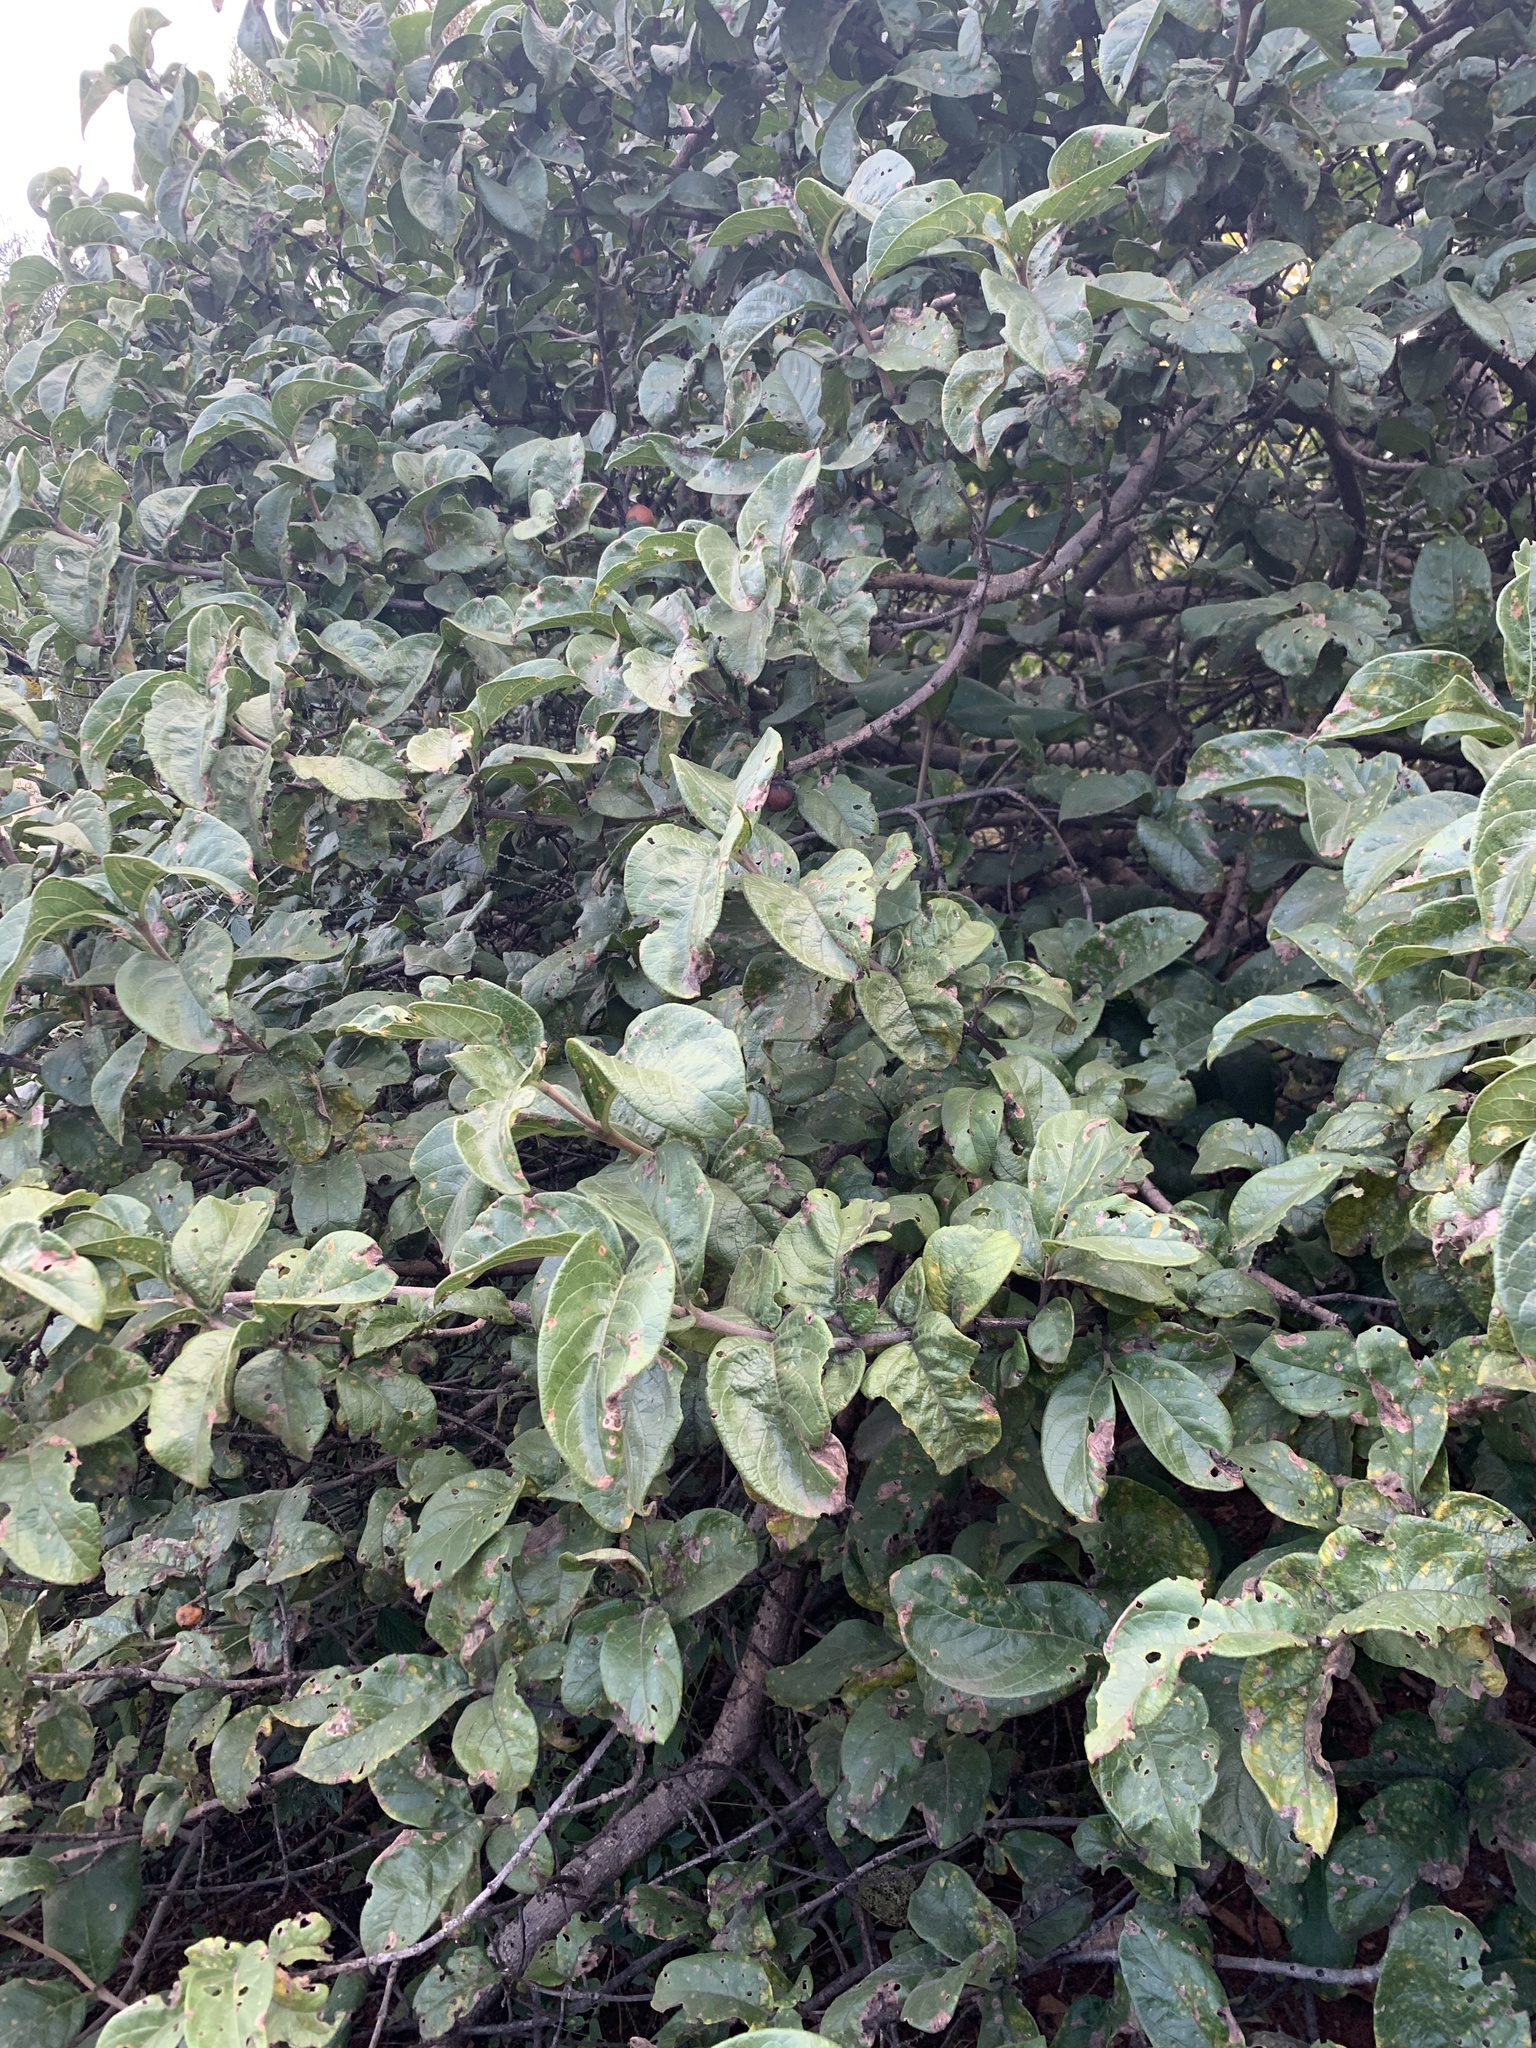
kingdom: Plantae
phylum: Tracheophyta
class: Magnoliopsida
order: Gentianales
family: Rubiaceae
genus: Vangueria
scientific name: Vangueria infausta
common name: Medlar
